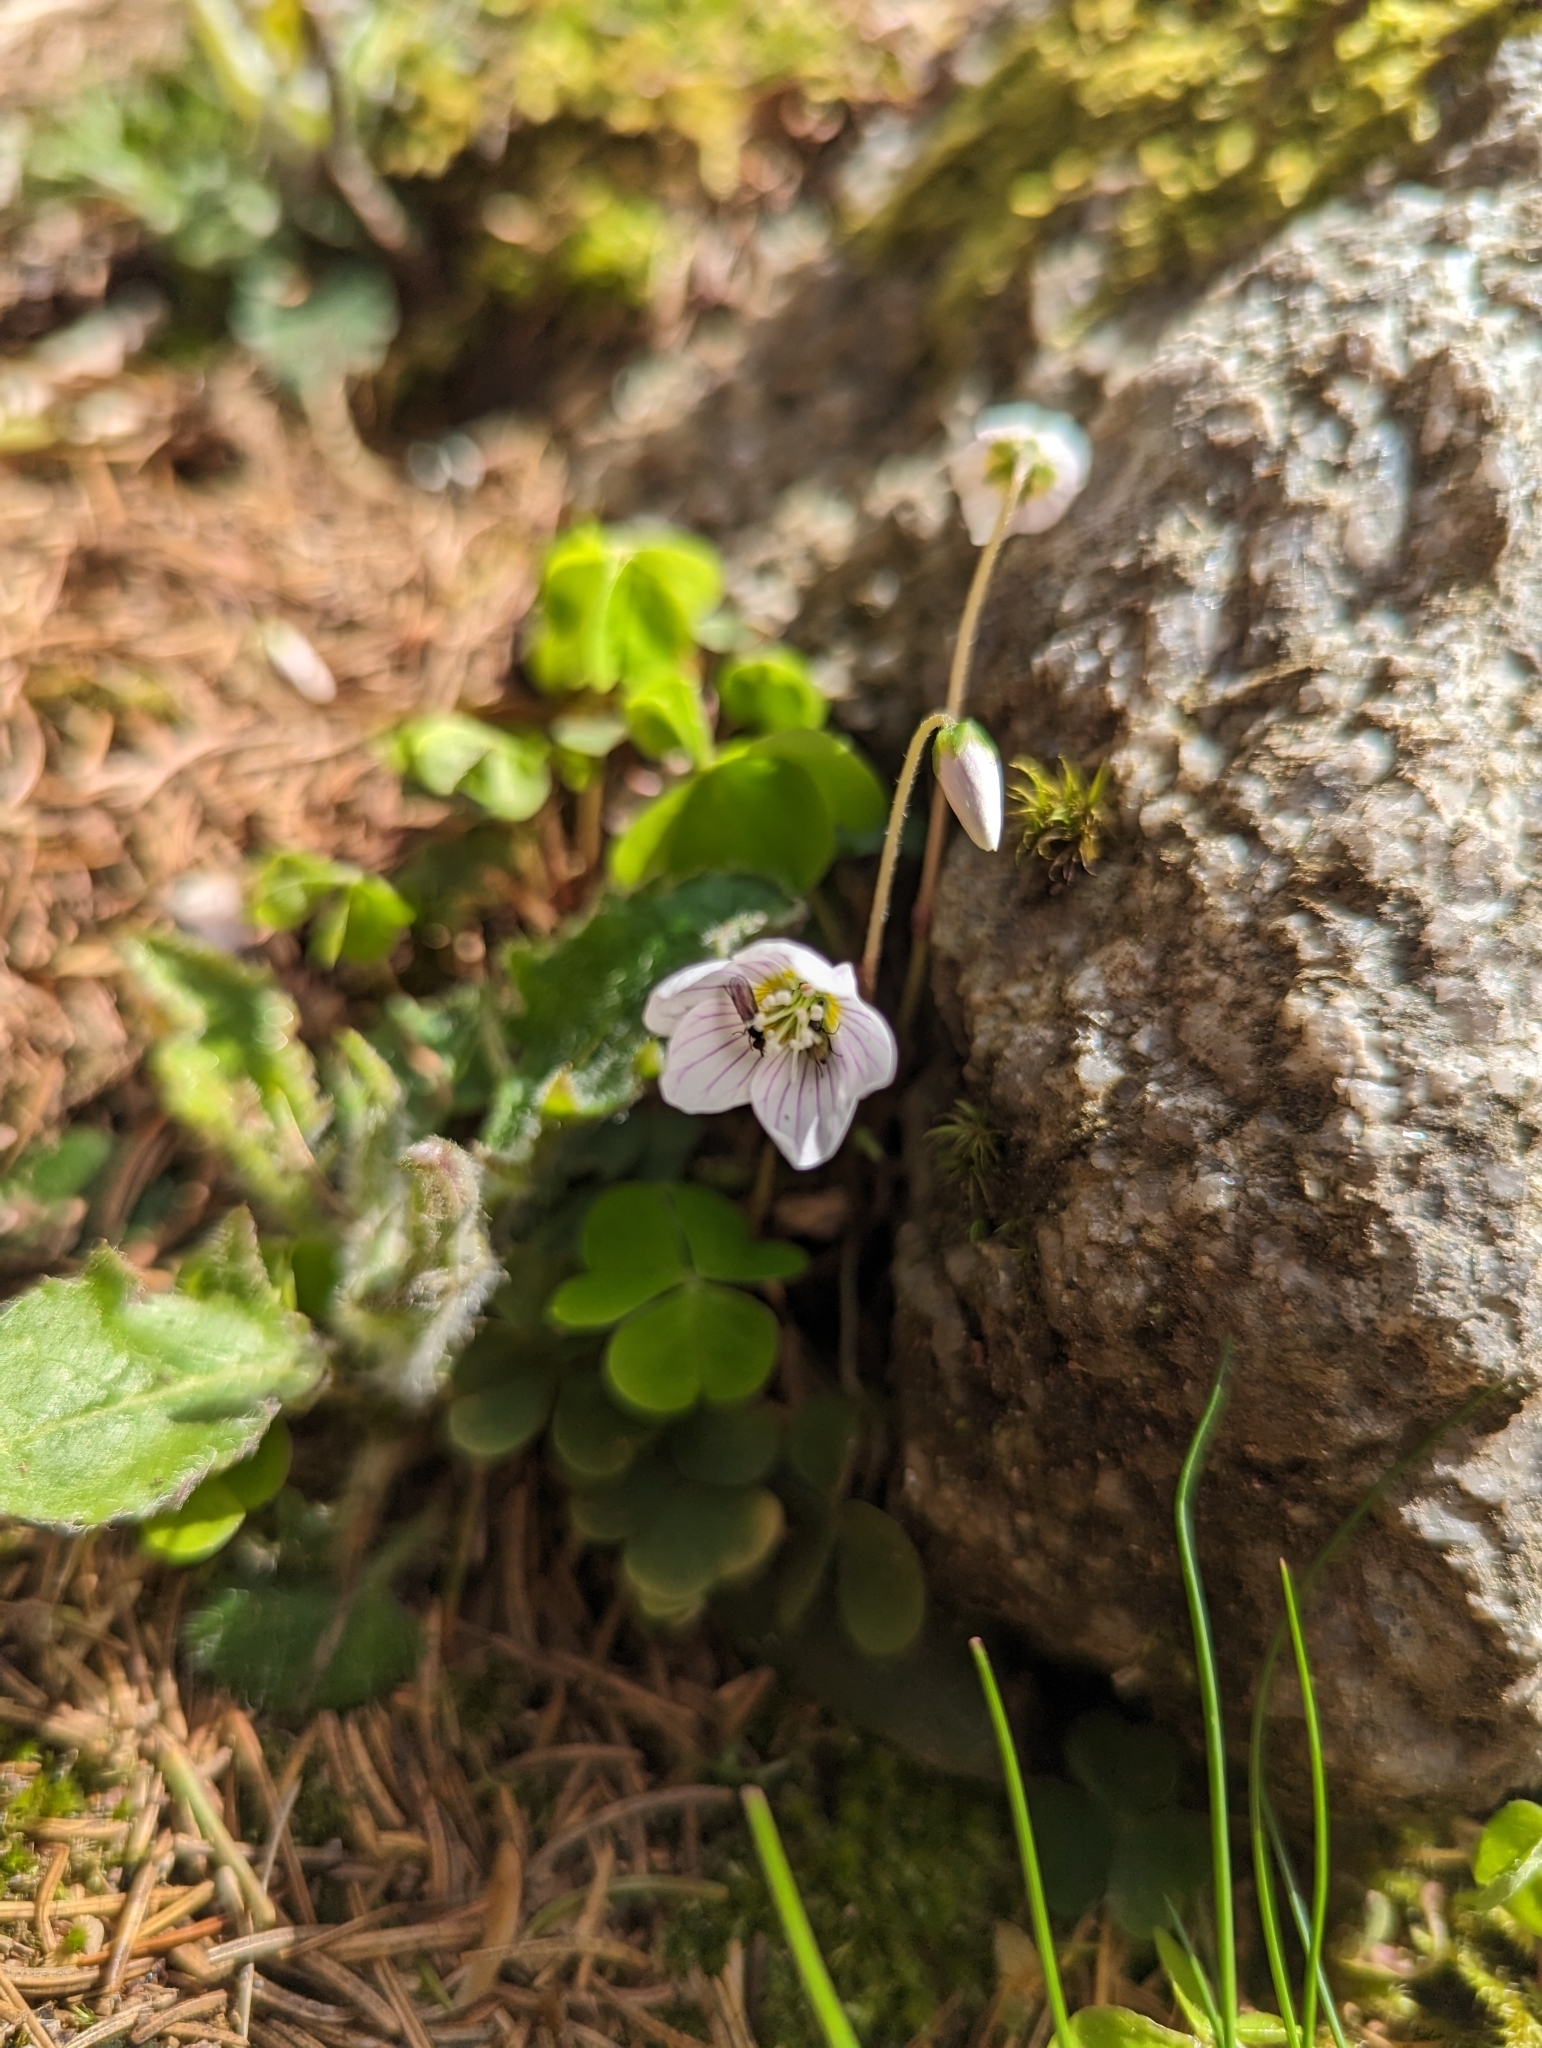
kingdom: Plantae
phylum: Tracheophyta
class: Magnoliopsida
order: Oxalidales
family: Oxalidaceae
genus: Oxalis
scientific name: Oxalis acetosella
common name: Wood-sorrel
